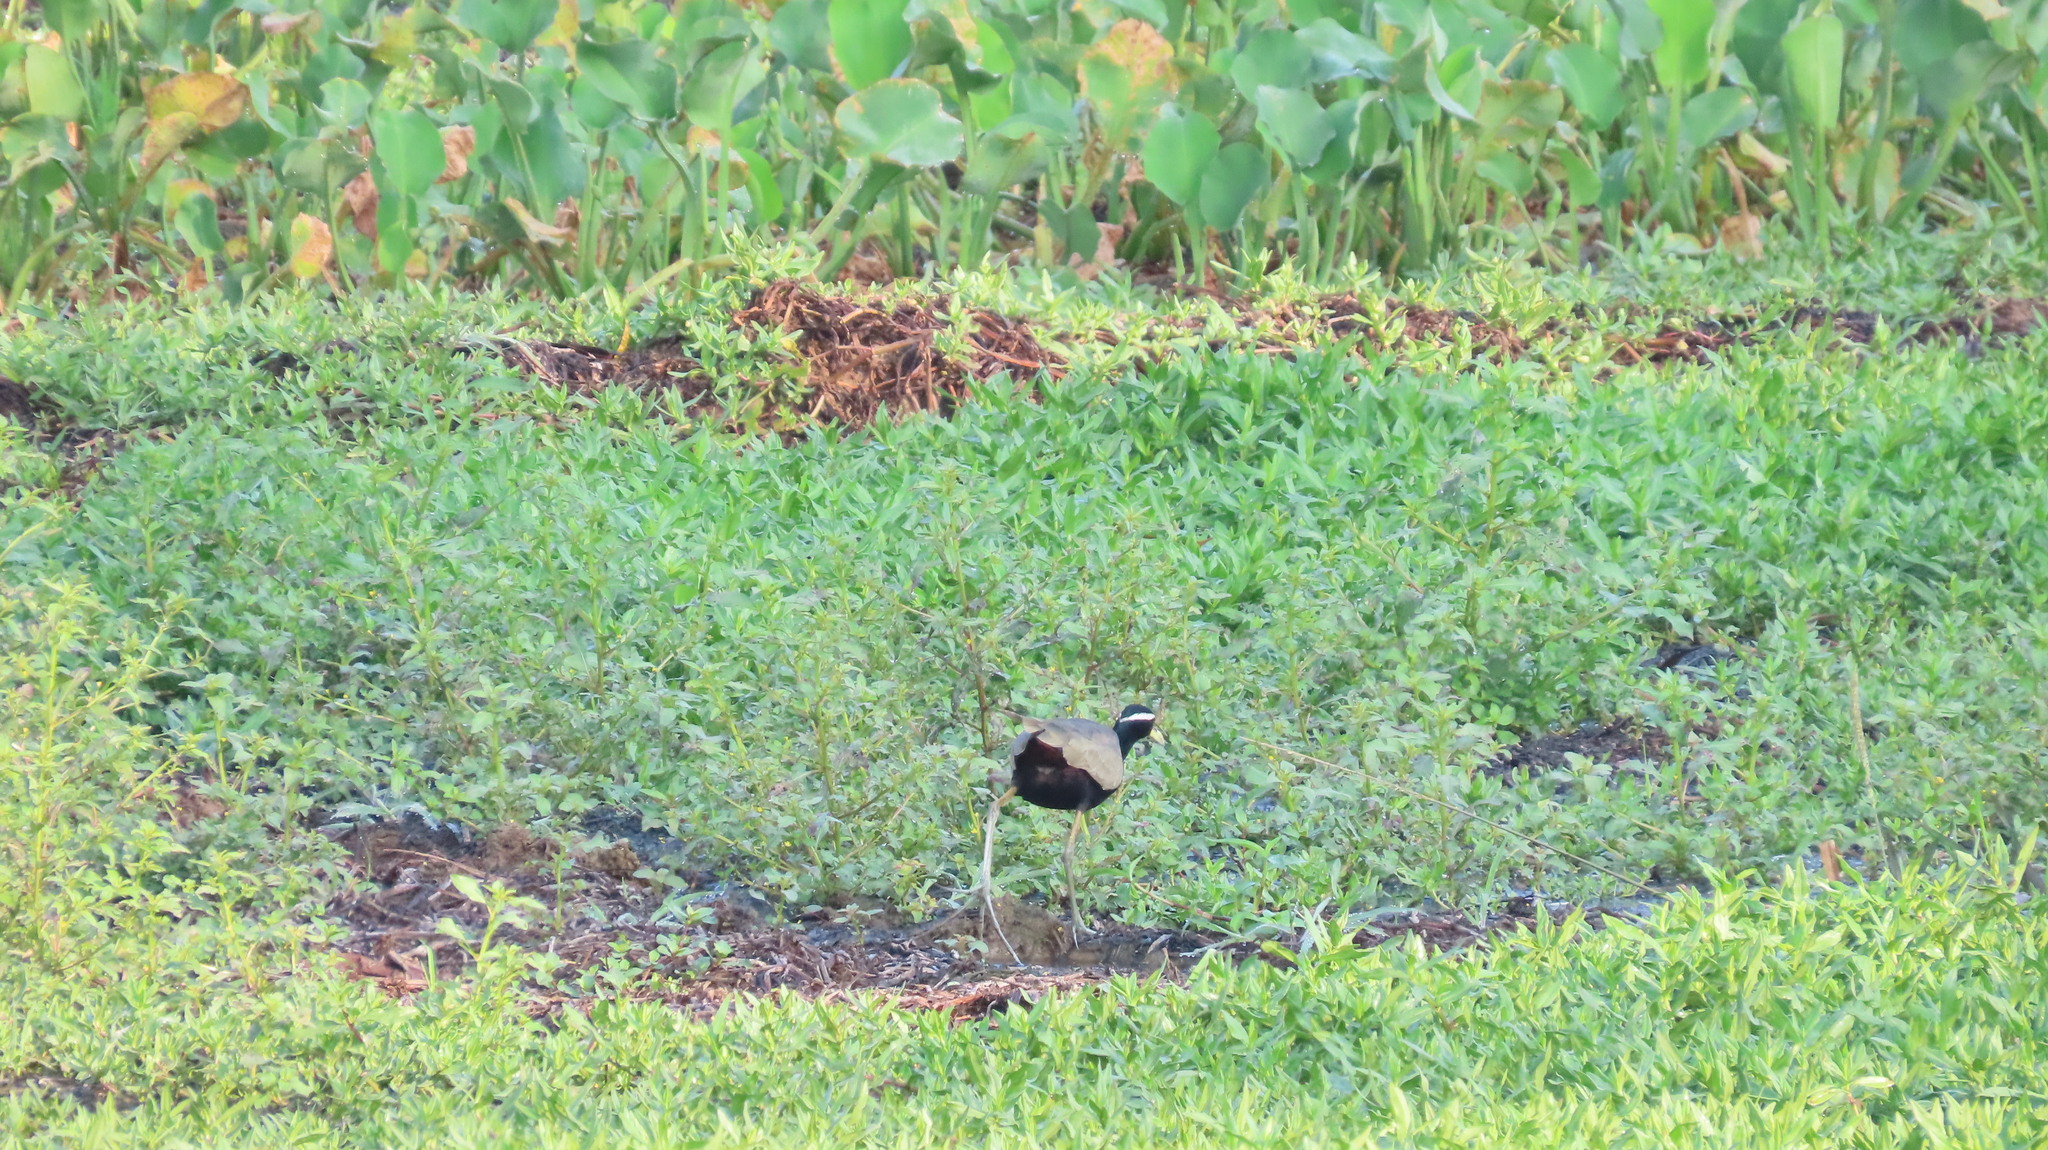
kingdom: Animalia
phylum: Chordata
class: Aves
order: Charadriiformes
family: Jacanidae
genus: Metopidius
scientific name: Metopidius indicus
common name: Bronze-winged jacana
